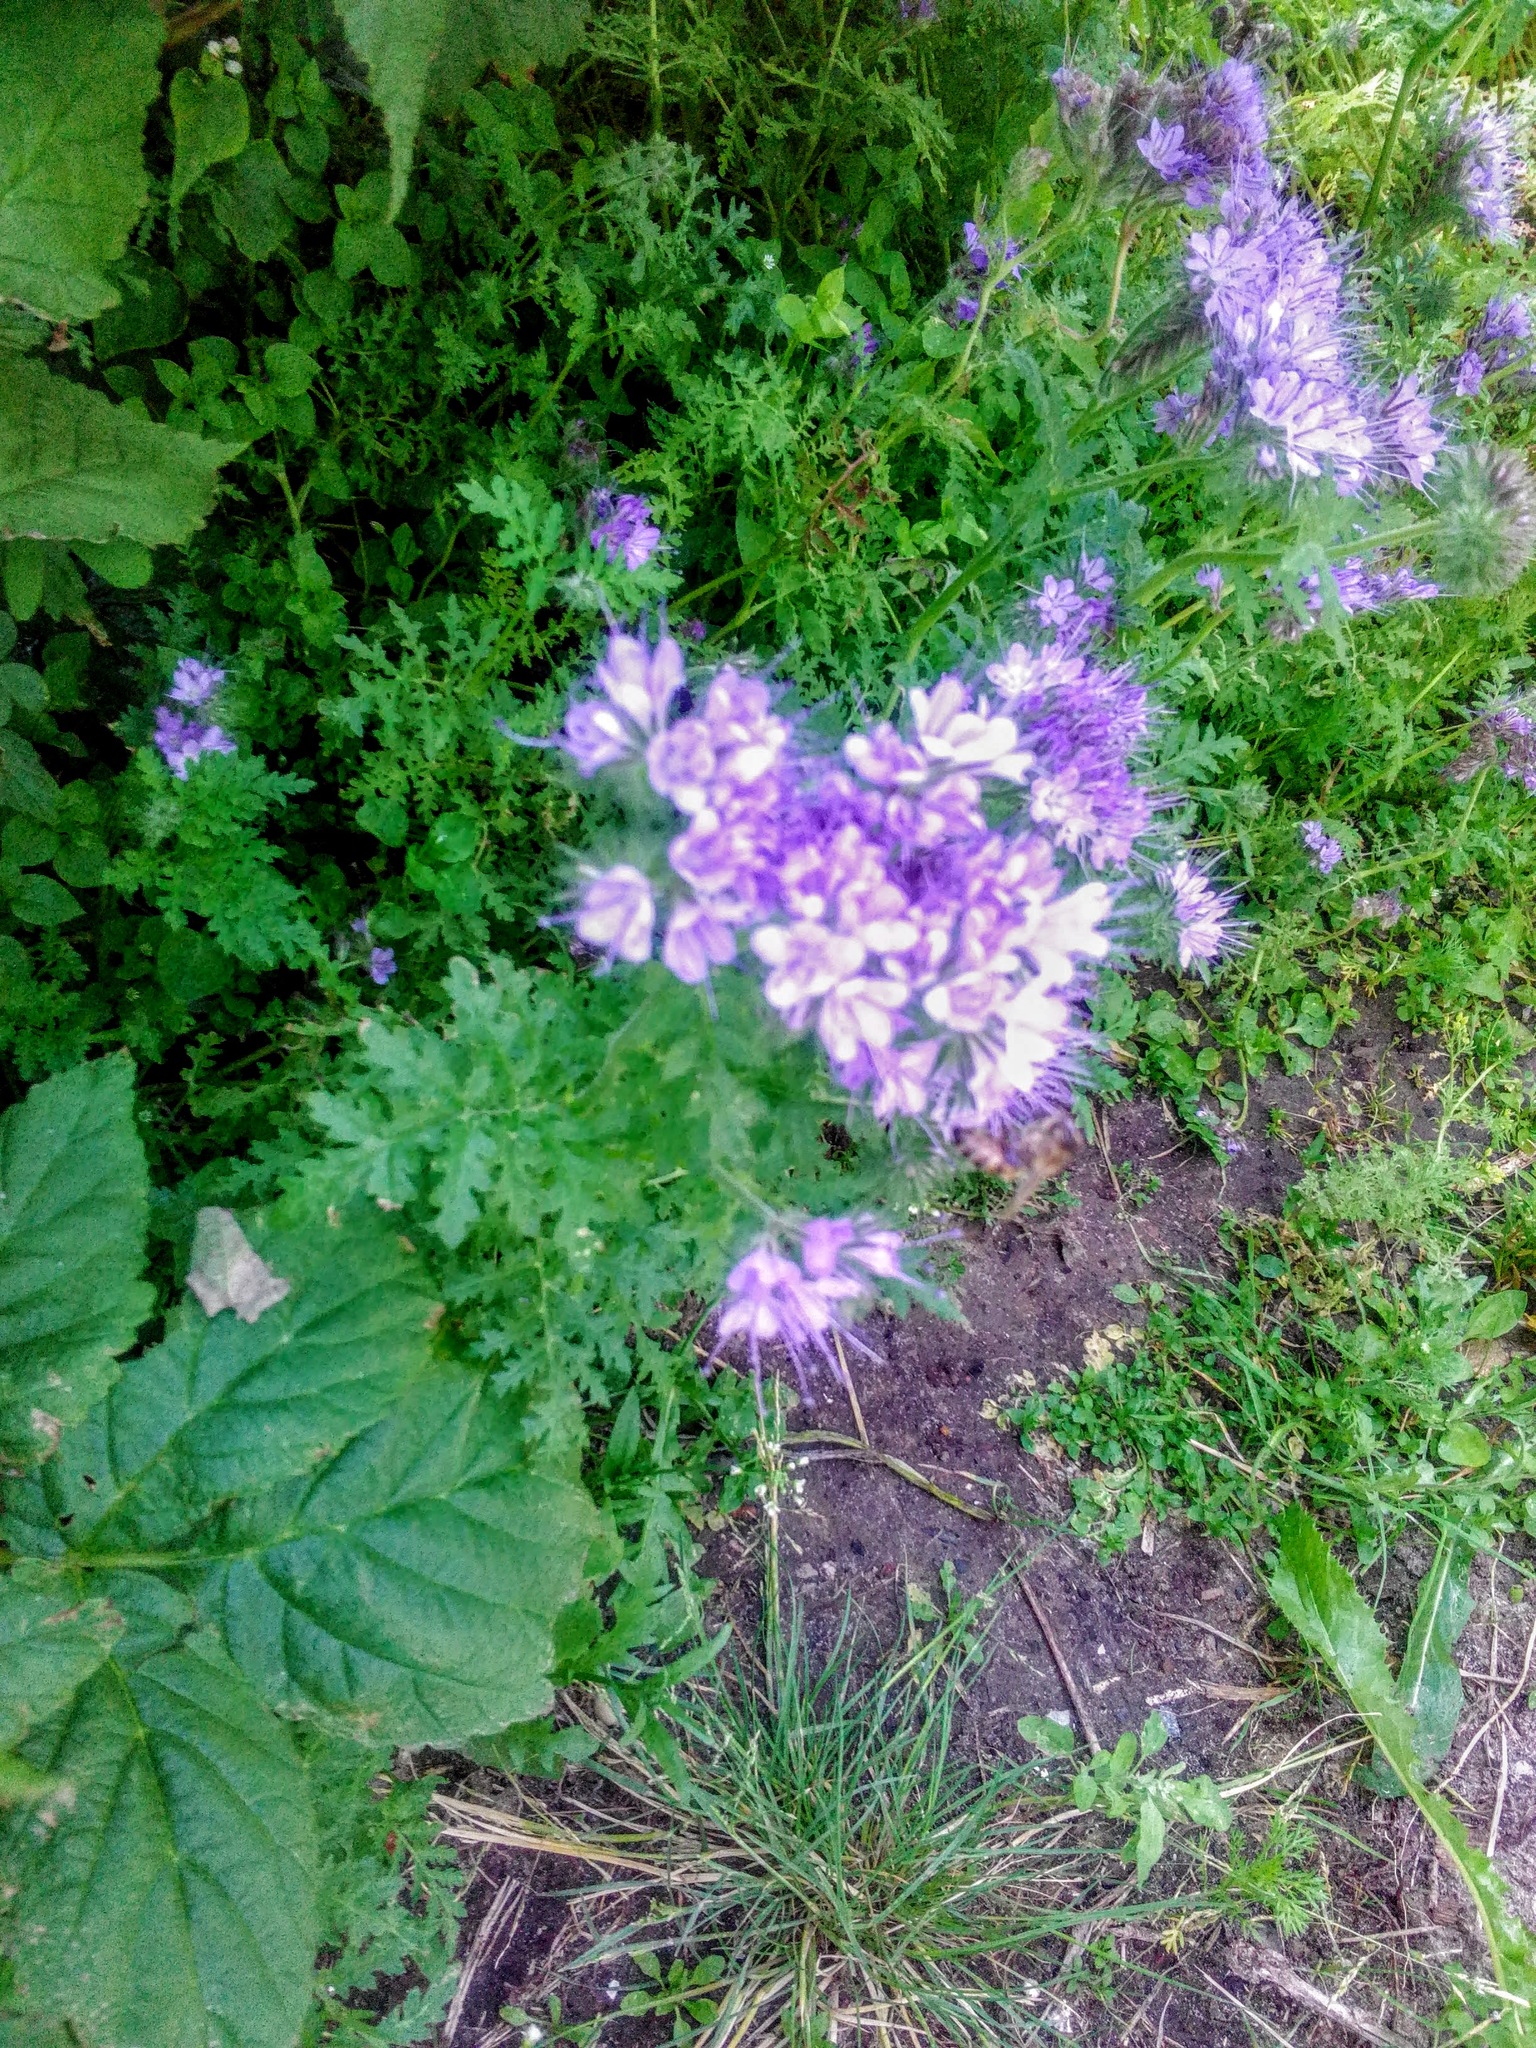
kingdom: Plantae
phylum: Tracheophyta
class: Magnoliopsida
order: Boraginales
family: Hydrophyllaceae
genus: Phacelia
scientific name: Phacelia tanacetifolia
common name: Phacelia
